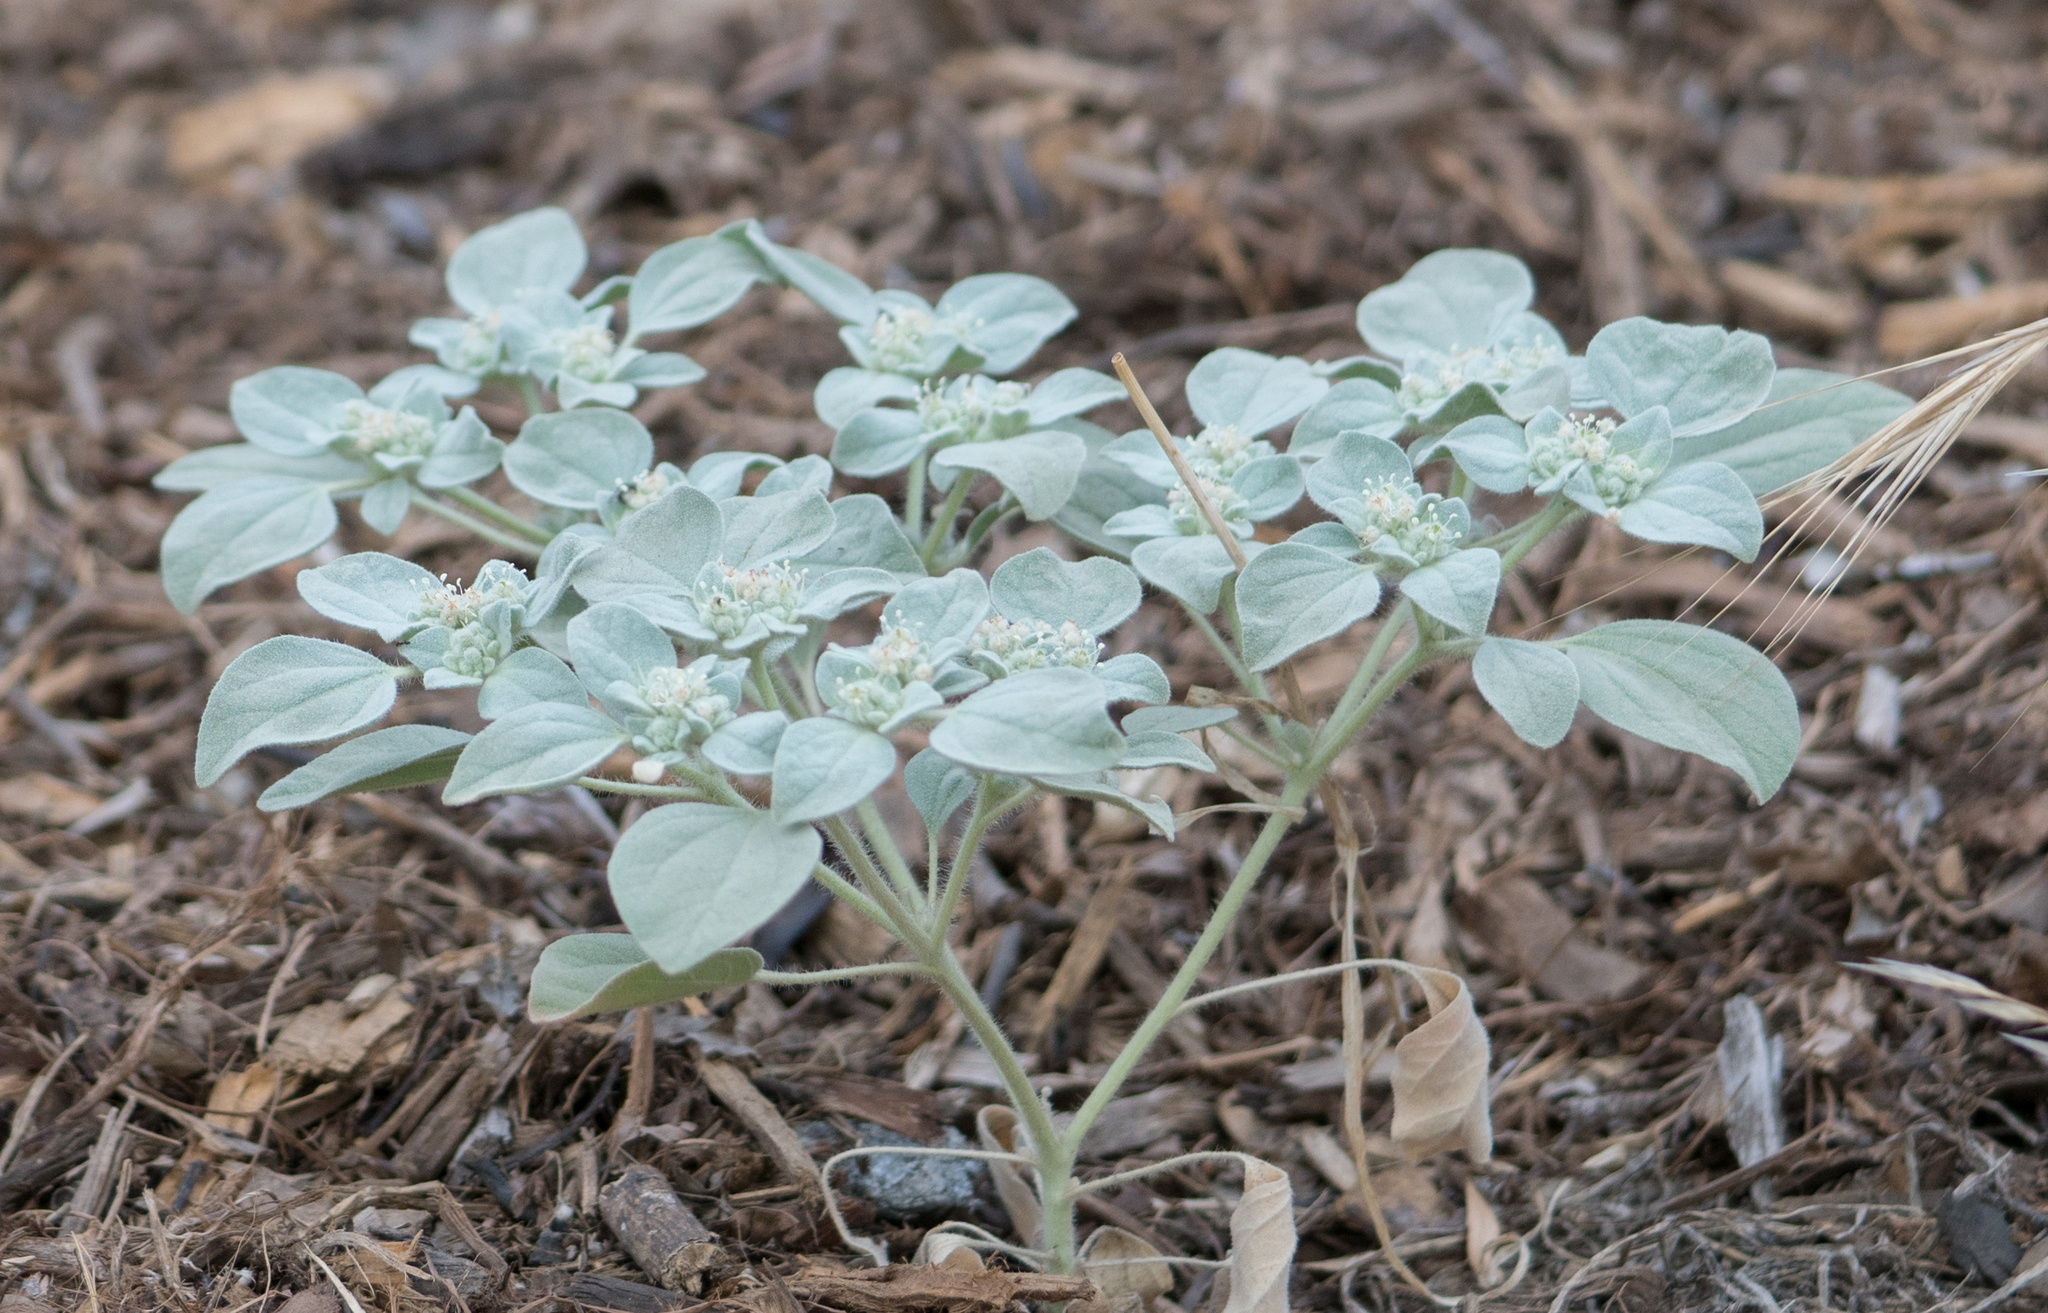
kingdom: Plantae
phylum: Tracheophyta
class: Magnoliopsida
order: Malpighiales
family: Euphorbiaceae
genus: Croton
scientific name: Croton setiger
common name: Dove weed
